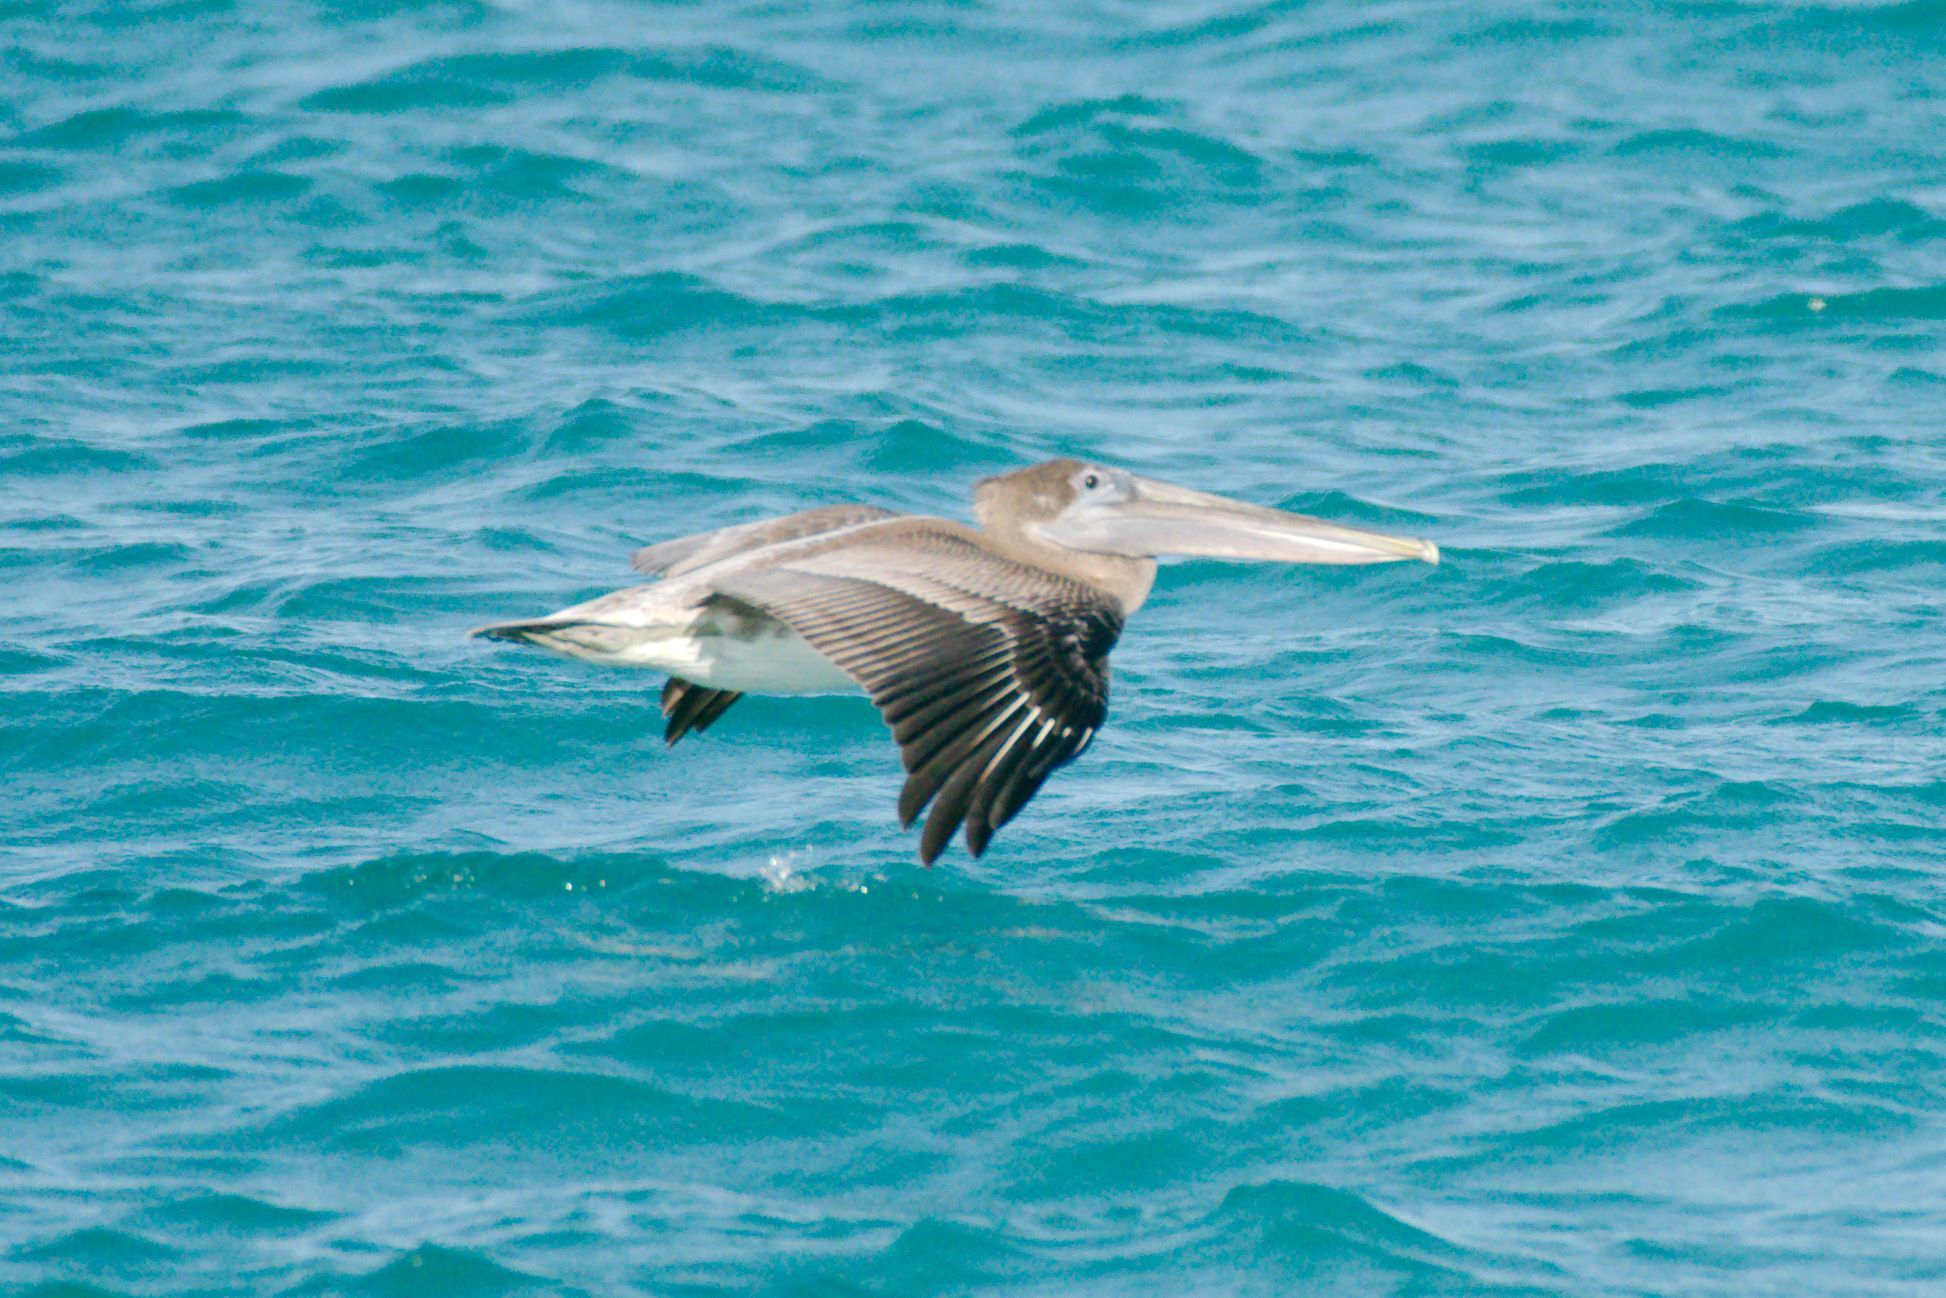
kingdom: Animalia
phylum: Chordata
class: Aves
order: Pelecaniformes
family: Pelecanidae
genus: Pelecanus
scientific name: Pelecanus occidentalis
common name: Brown pelican
